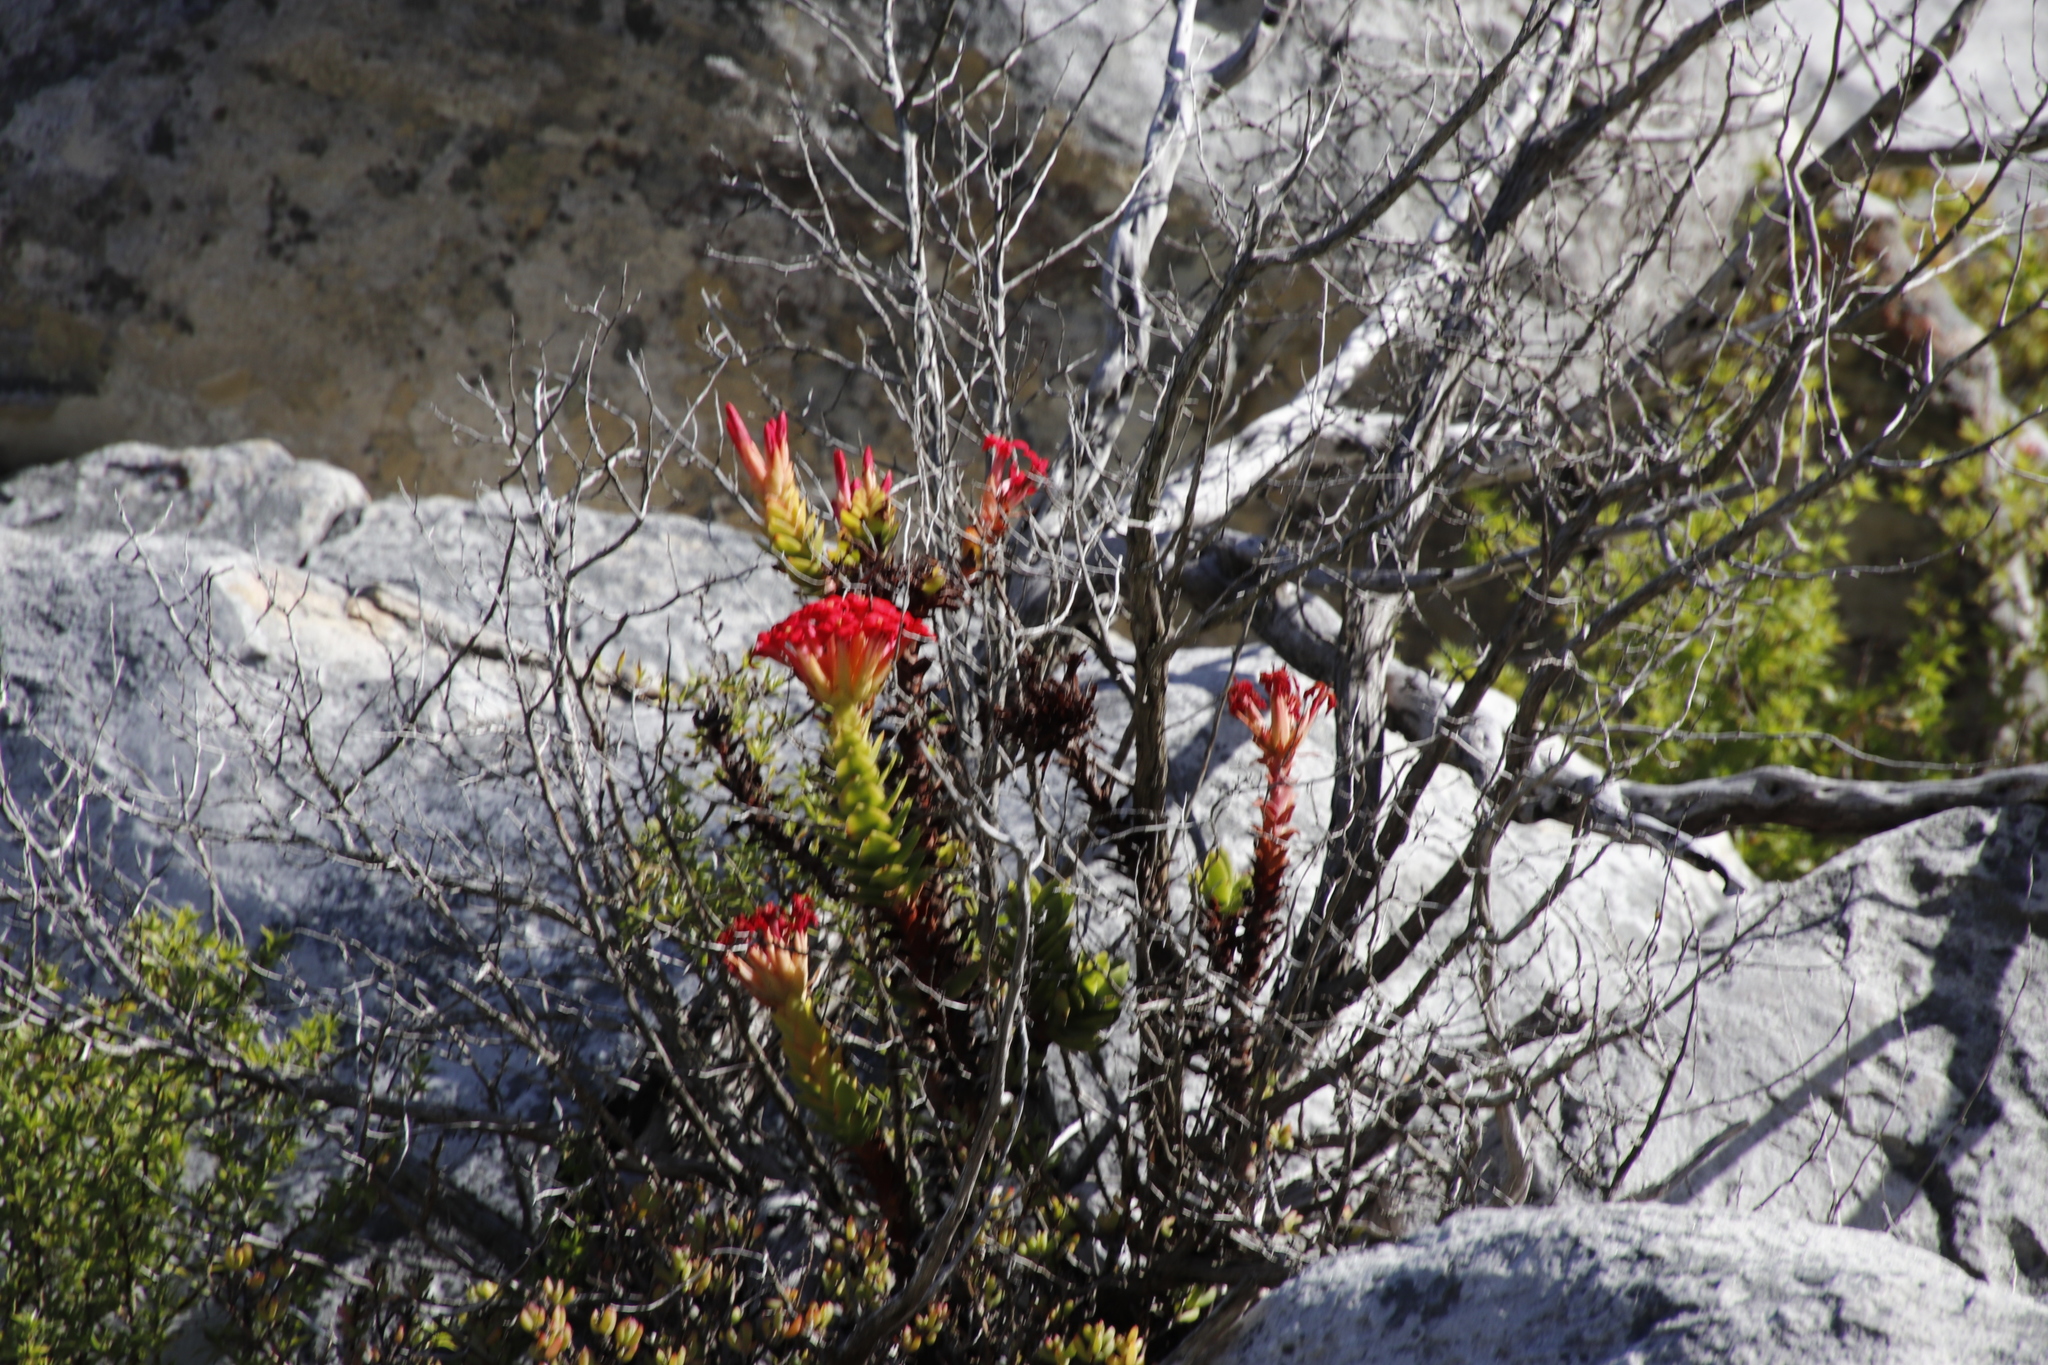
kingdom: Plantae
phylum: Tracheophyta
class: Magnoliopsida
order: Saxifragales
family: Crassulaceae
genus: Crassula
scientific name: Crassula coccinea
